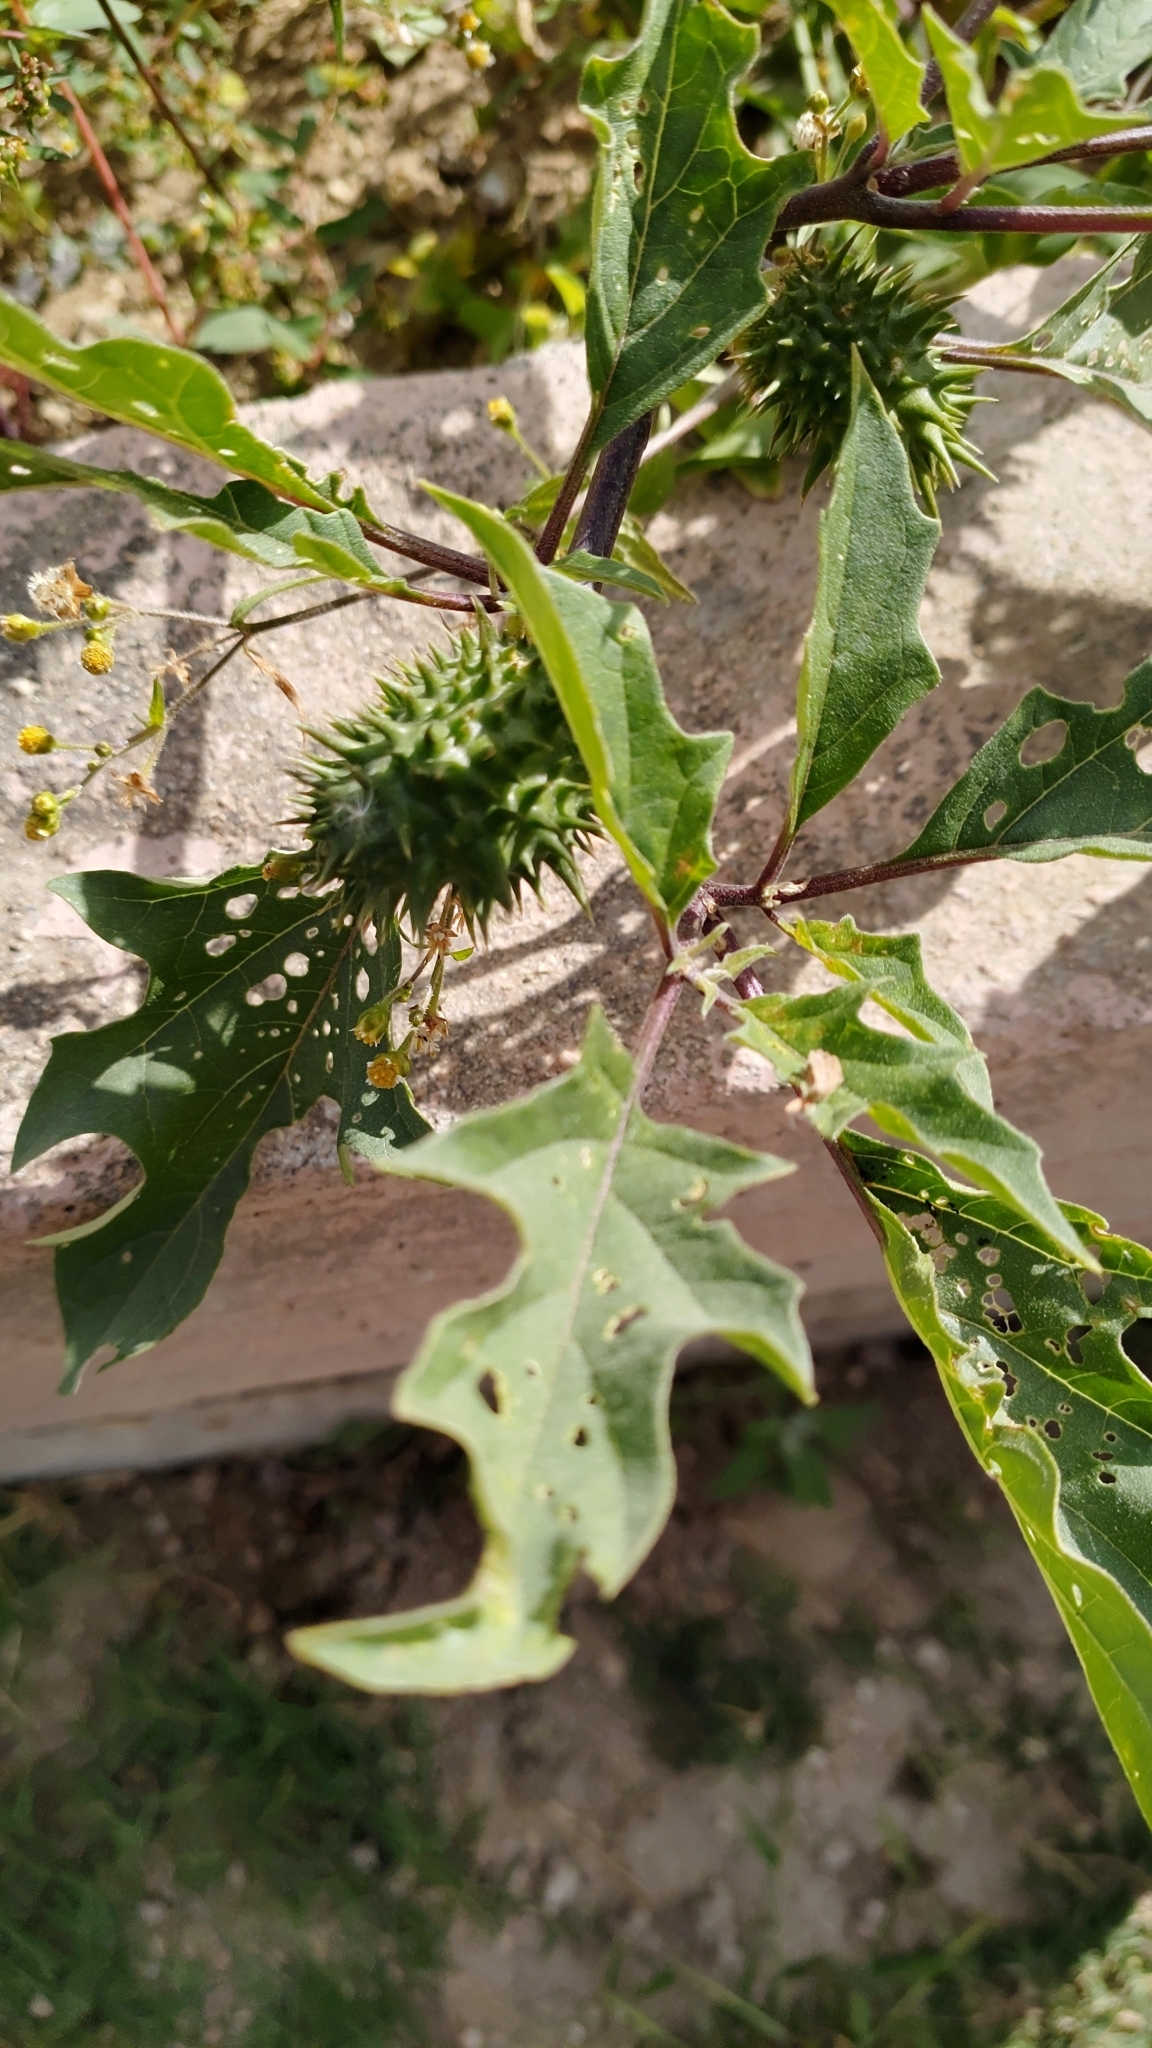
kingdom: Plantae
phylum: Tracheophyta
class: Magnoliopsida
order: Solanales
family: Solanaceae
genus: Datura
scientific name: Datura stramonium
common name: Thorn-apple
